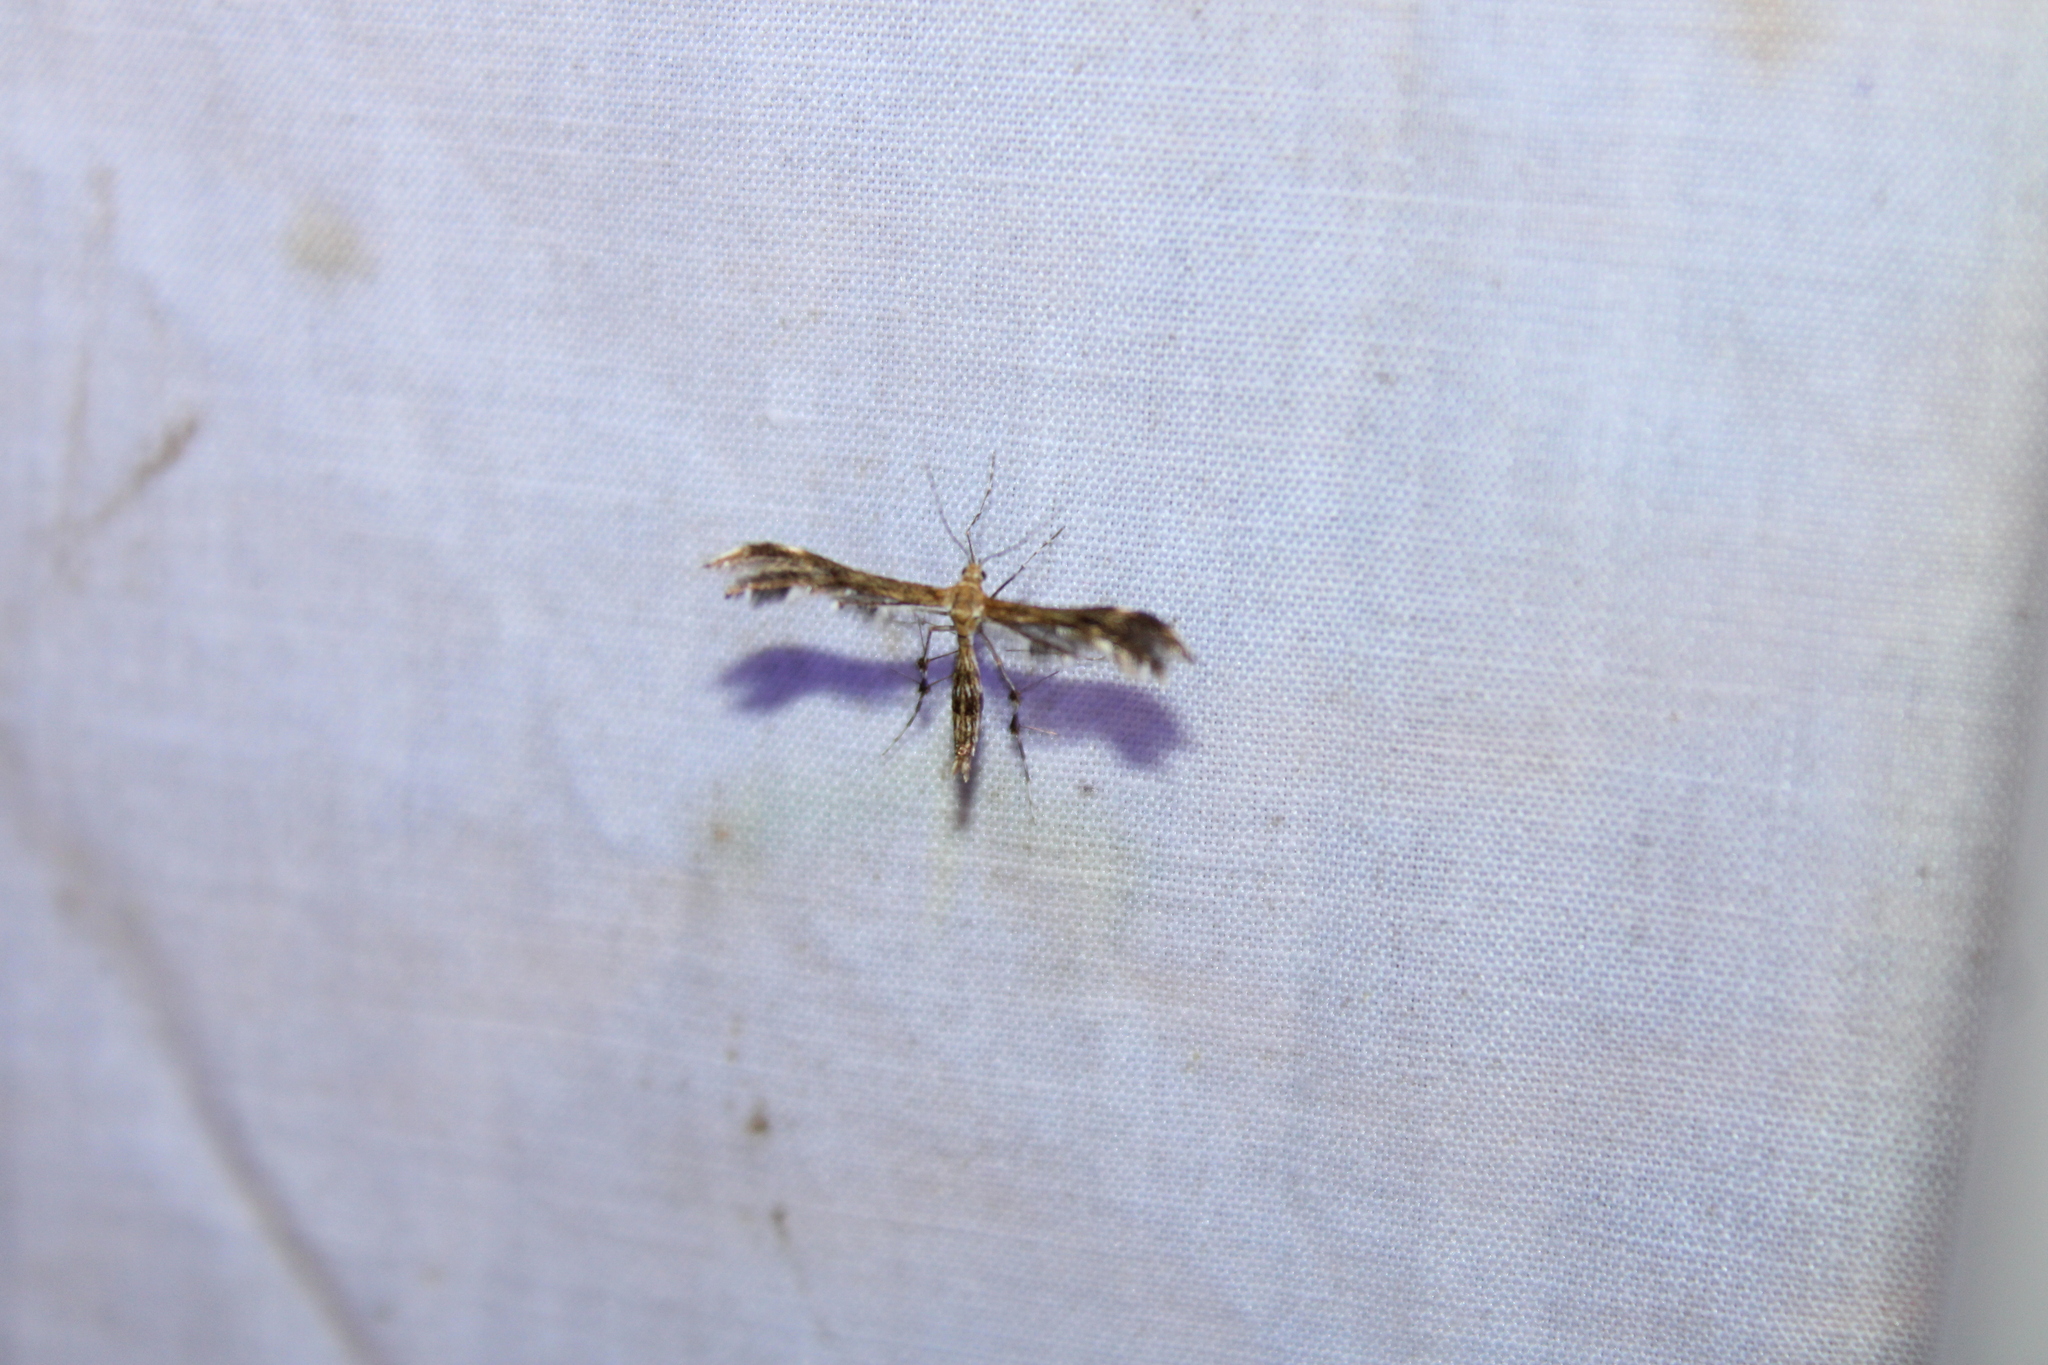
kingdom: Animalia
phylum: Arthropoda
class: Insecta
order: Lepidoptera
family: Pterophoridae
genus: Dejongia
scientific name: Dejongia lobidactylus
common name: Lobed plume moth
